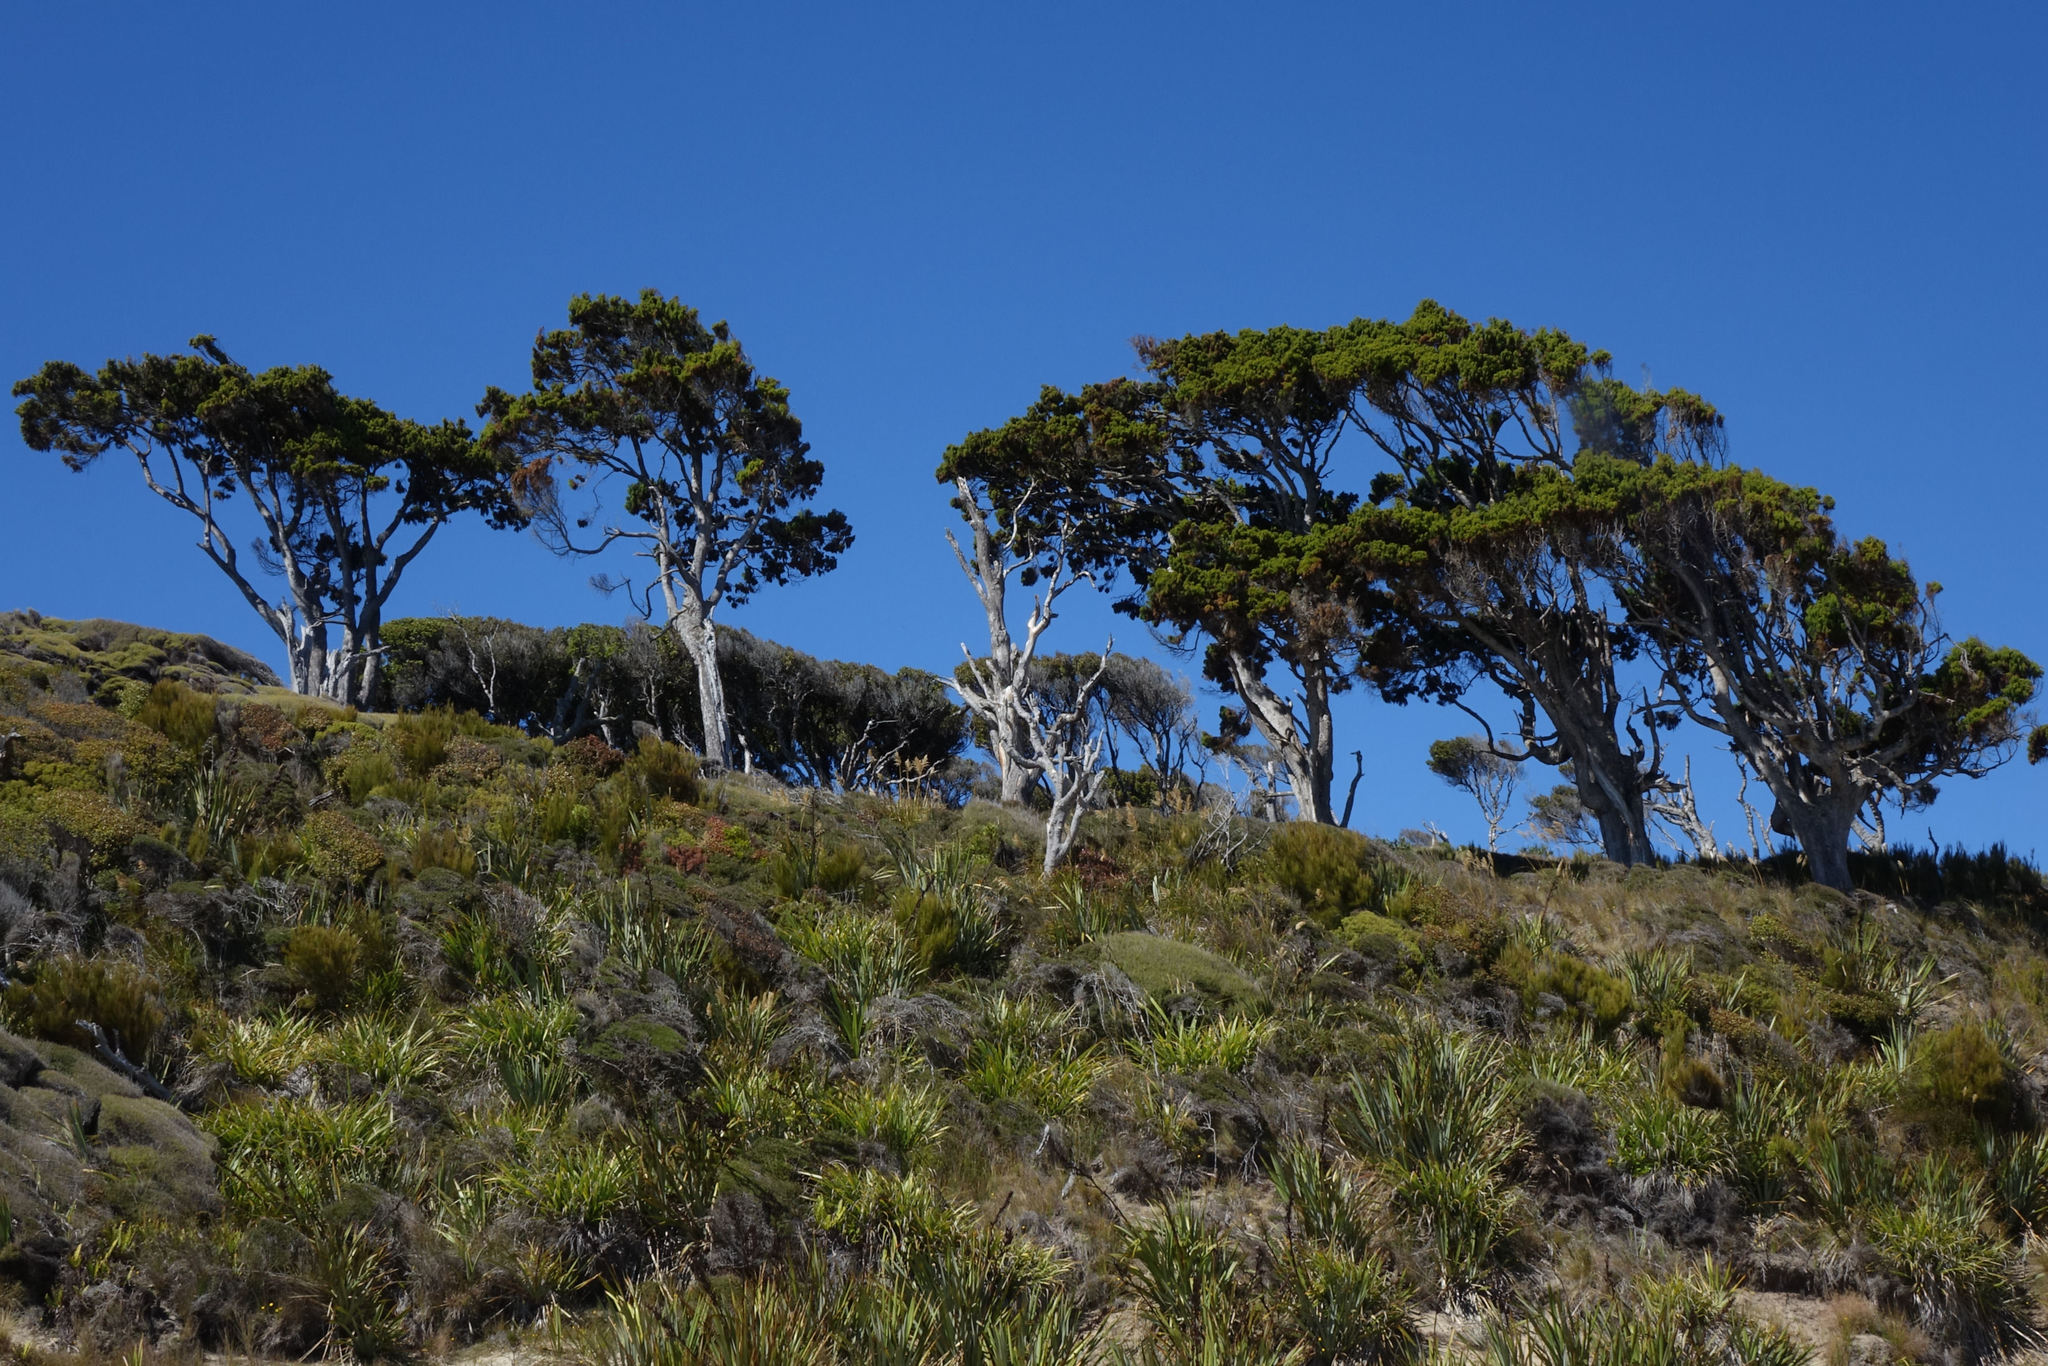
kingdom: Plantae
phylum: Tracheophyta
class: Pinopsida
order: Pinales
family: Podocarpaceae
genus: Dacrydium
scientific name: Dacrydium cupressinum
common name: Red pine
